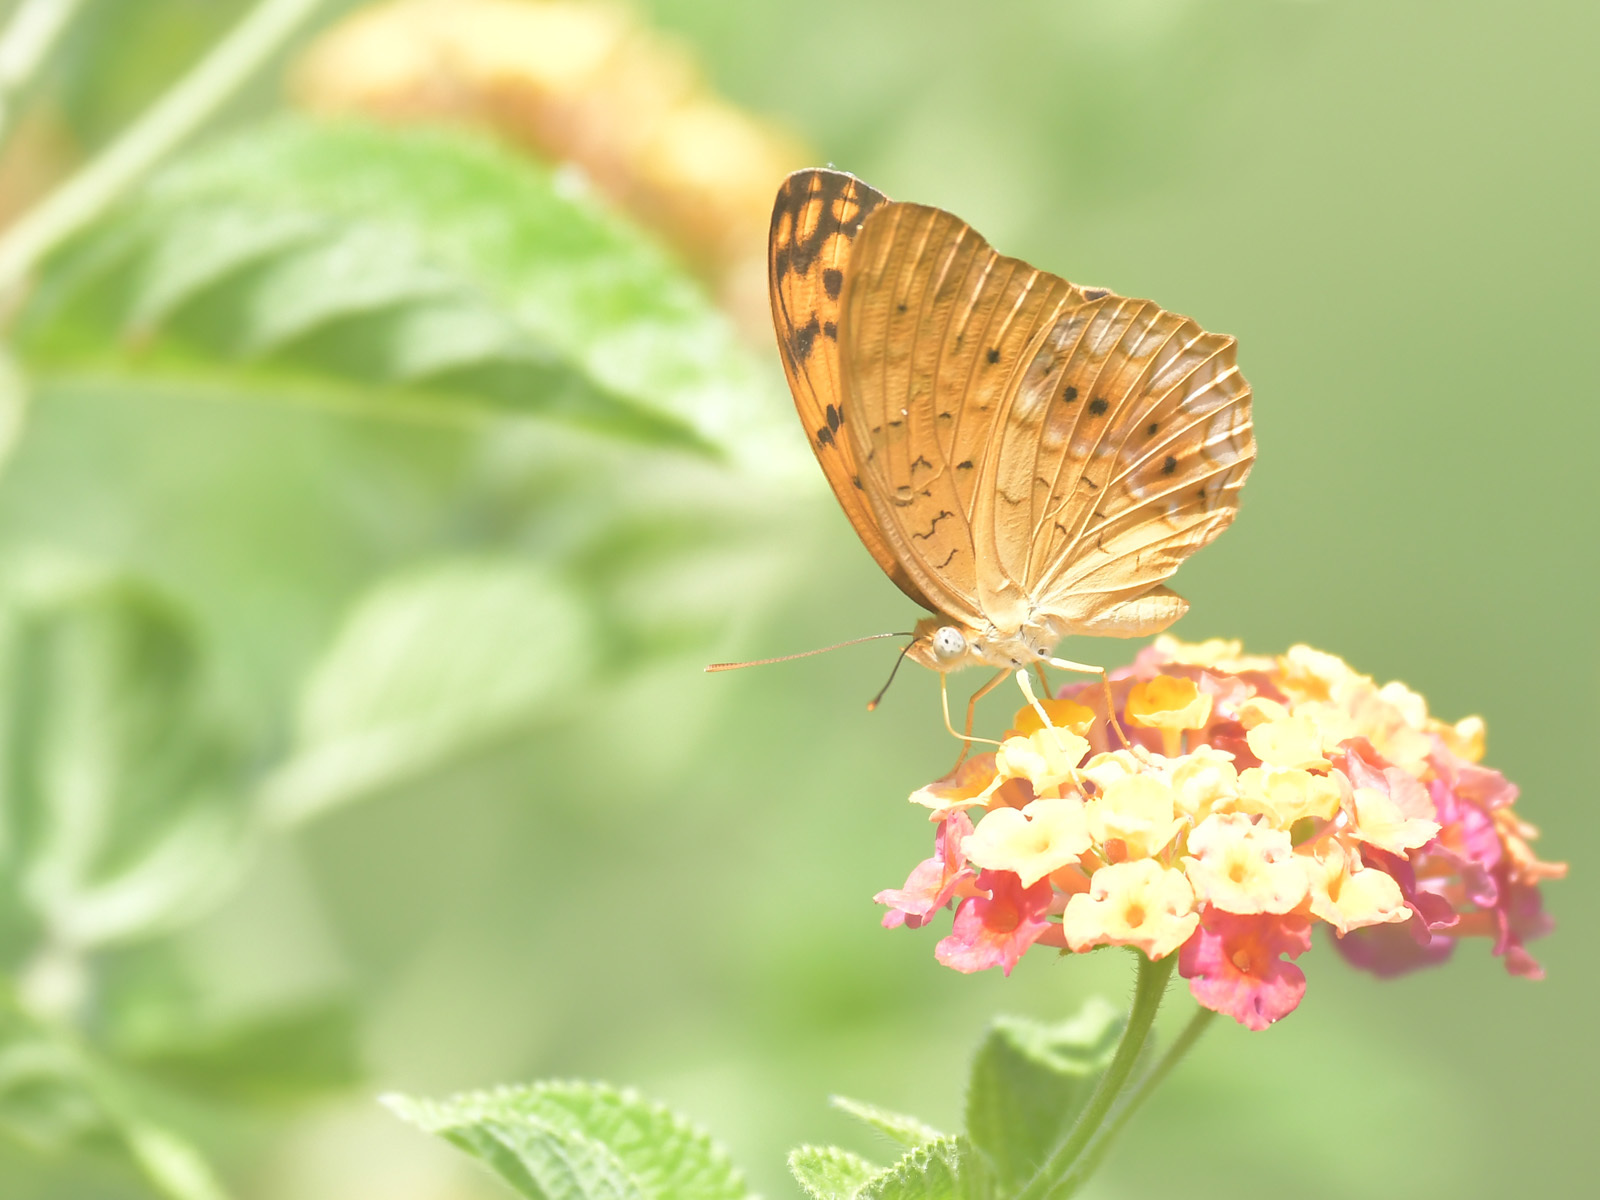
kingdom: Animalia
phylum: Arthropoda
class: Insecta
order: Lepidoptera
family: Nymphalidae
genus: Phalanta
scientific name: Phalanta phalantha
